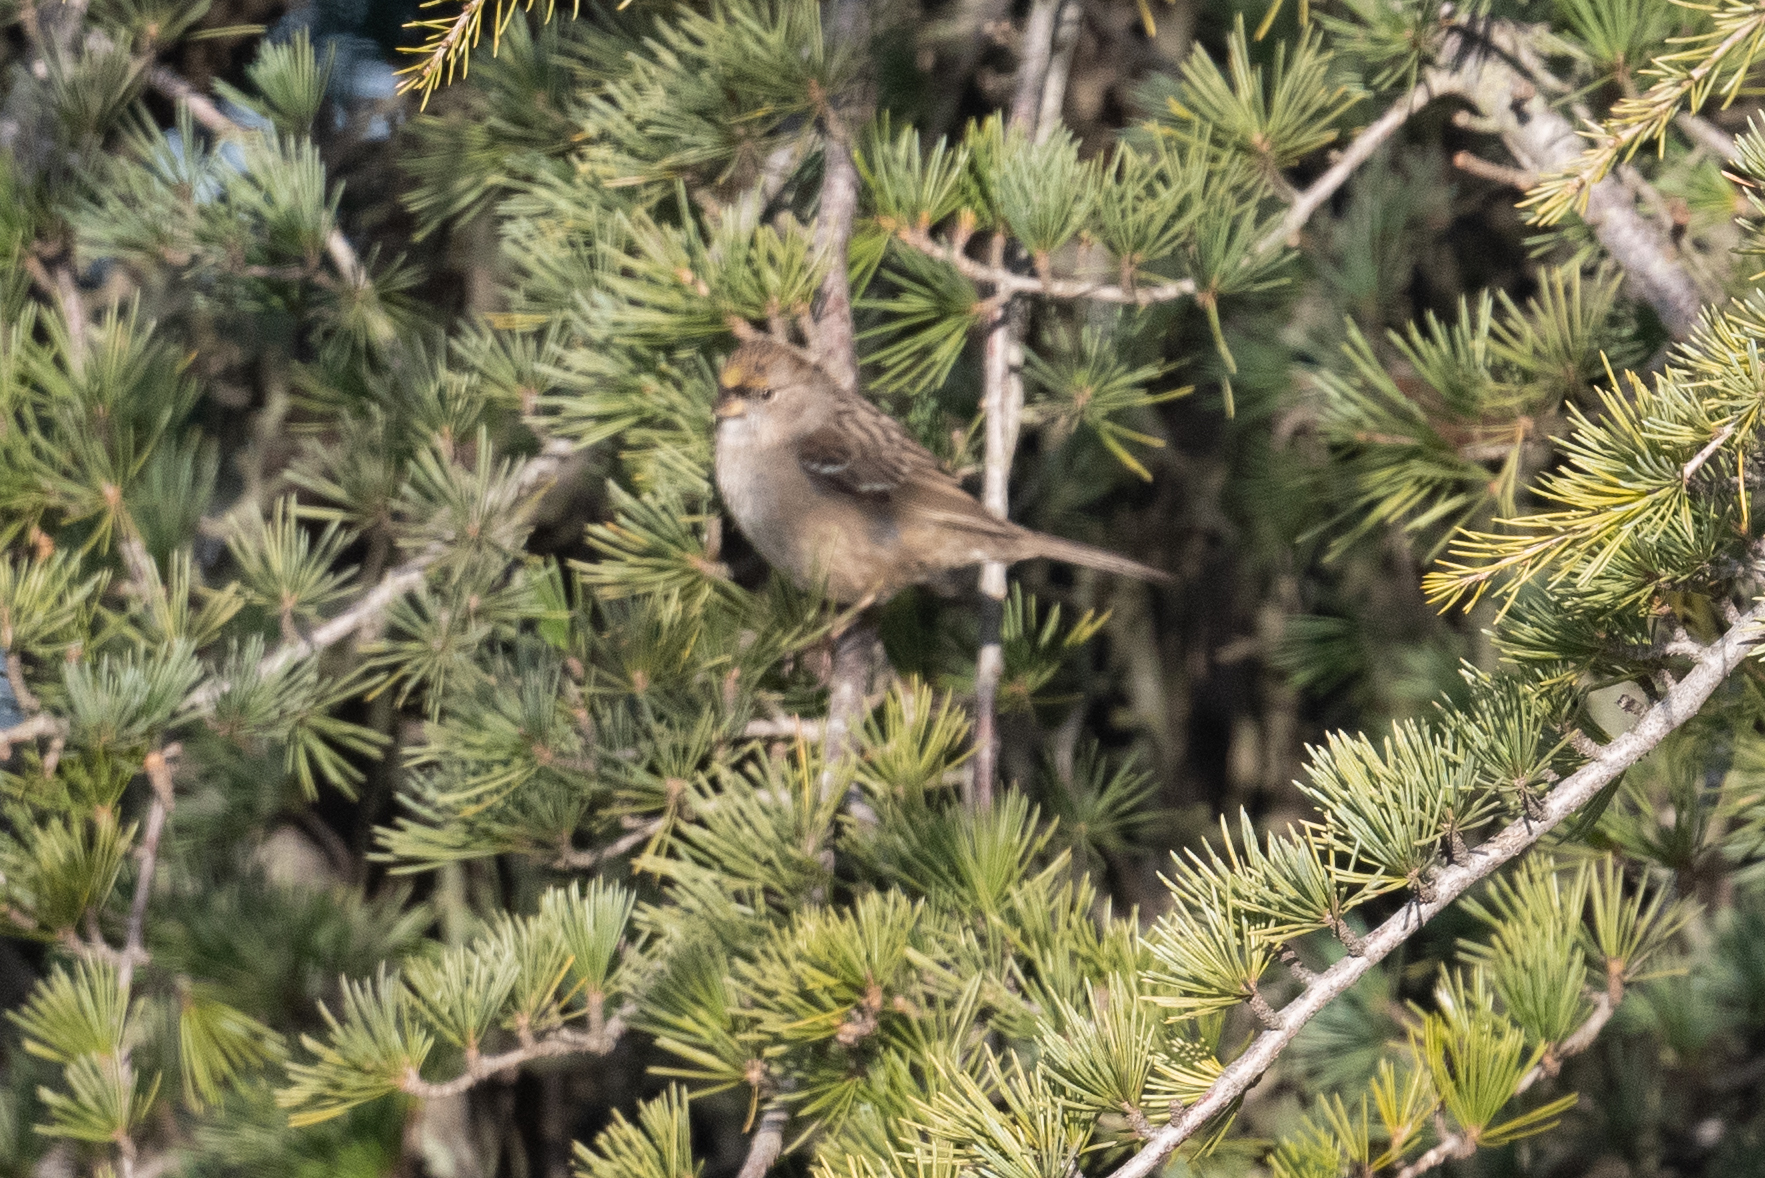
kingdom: Animalia
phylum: Chordata
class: Aves
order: Passeriformes
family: Passerellidae
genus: Zonotrichia
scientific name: Zonotrichia atricapilla
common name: Golden-crowned sparrow
